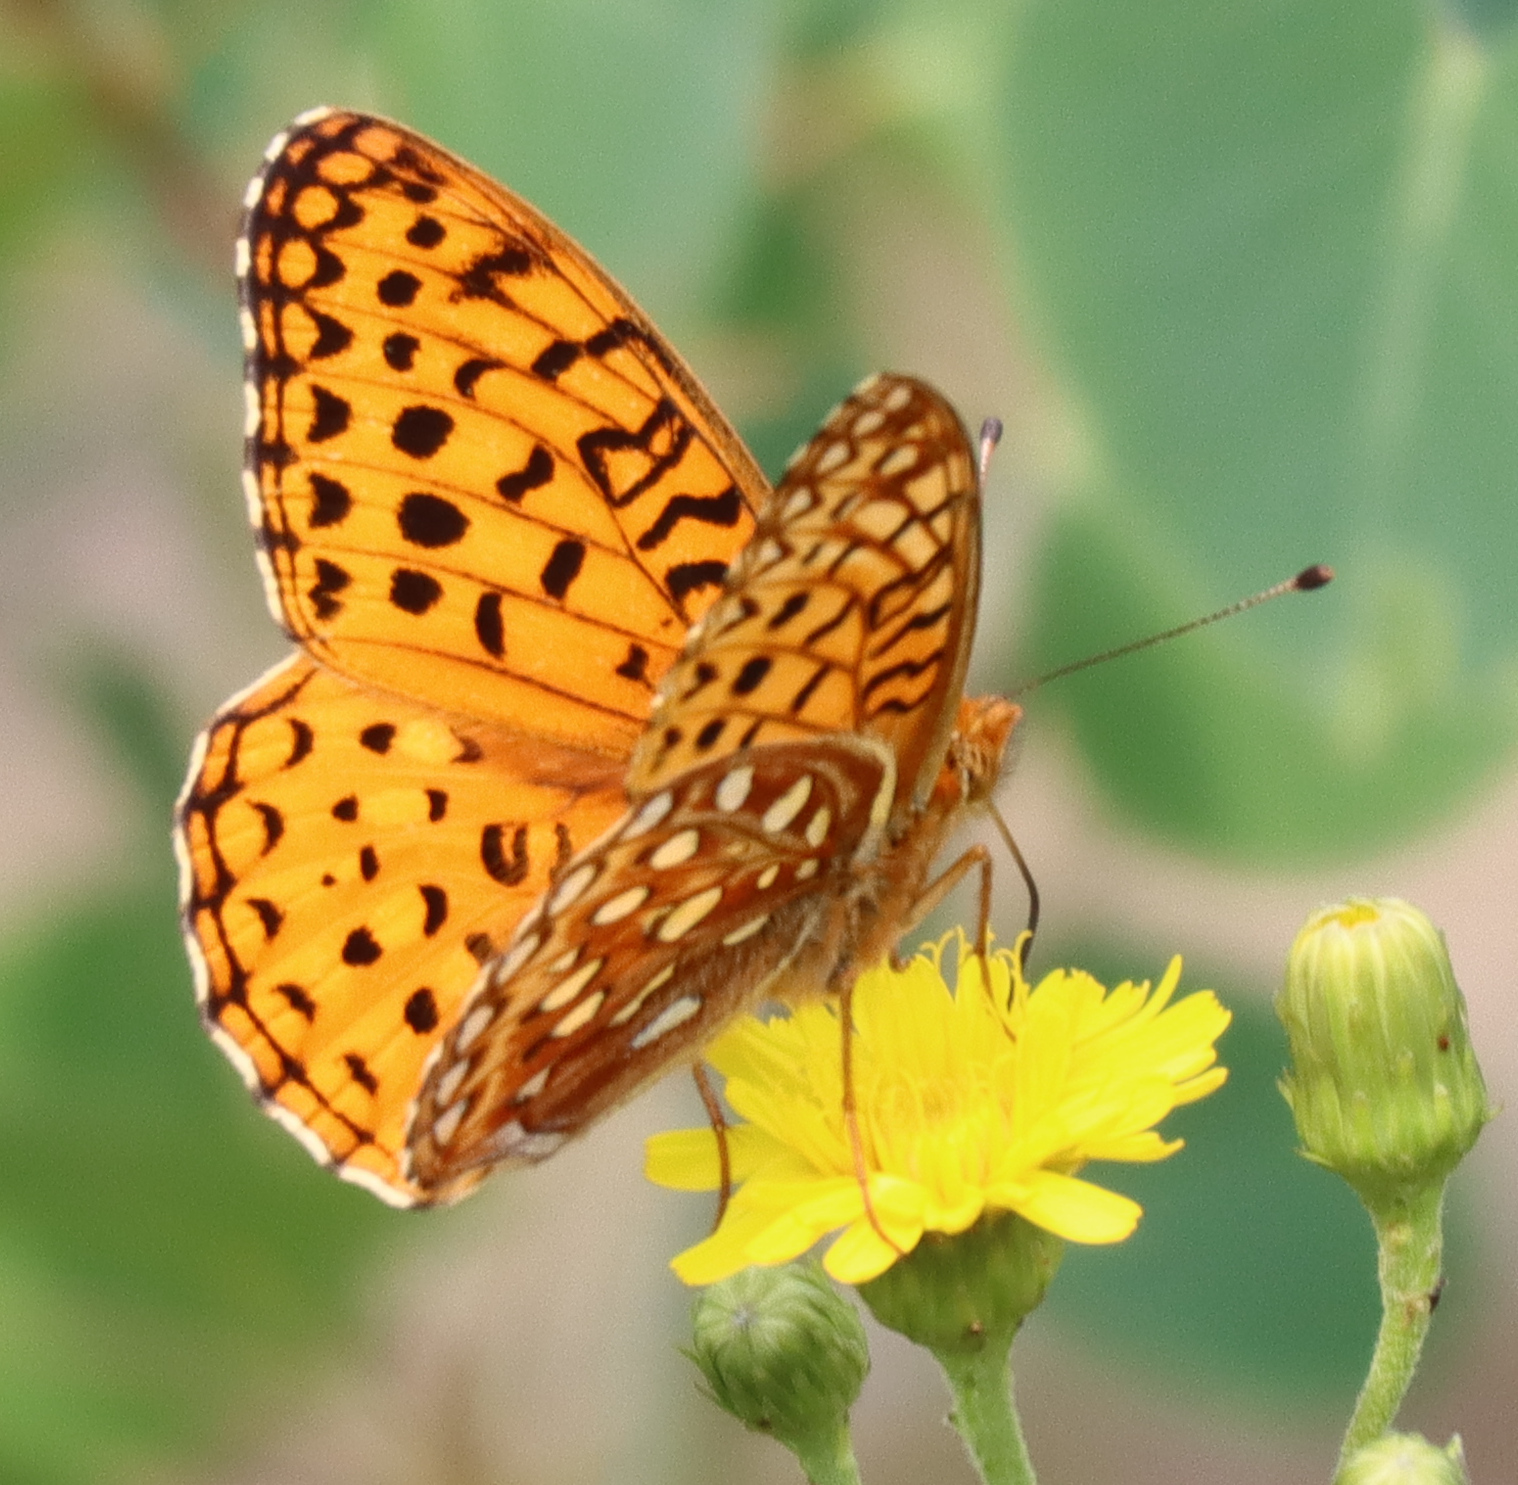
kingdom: Animalia
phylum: Arthropoda
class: Insecta
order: Lepidoptera
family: Nymphalidae
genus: Speyeria
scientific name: Speyeria aphrodite
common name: Aphrodite friitllary
